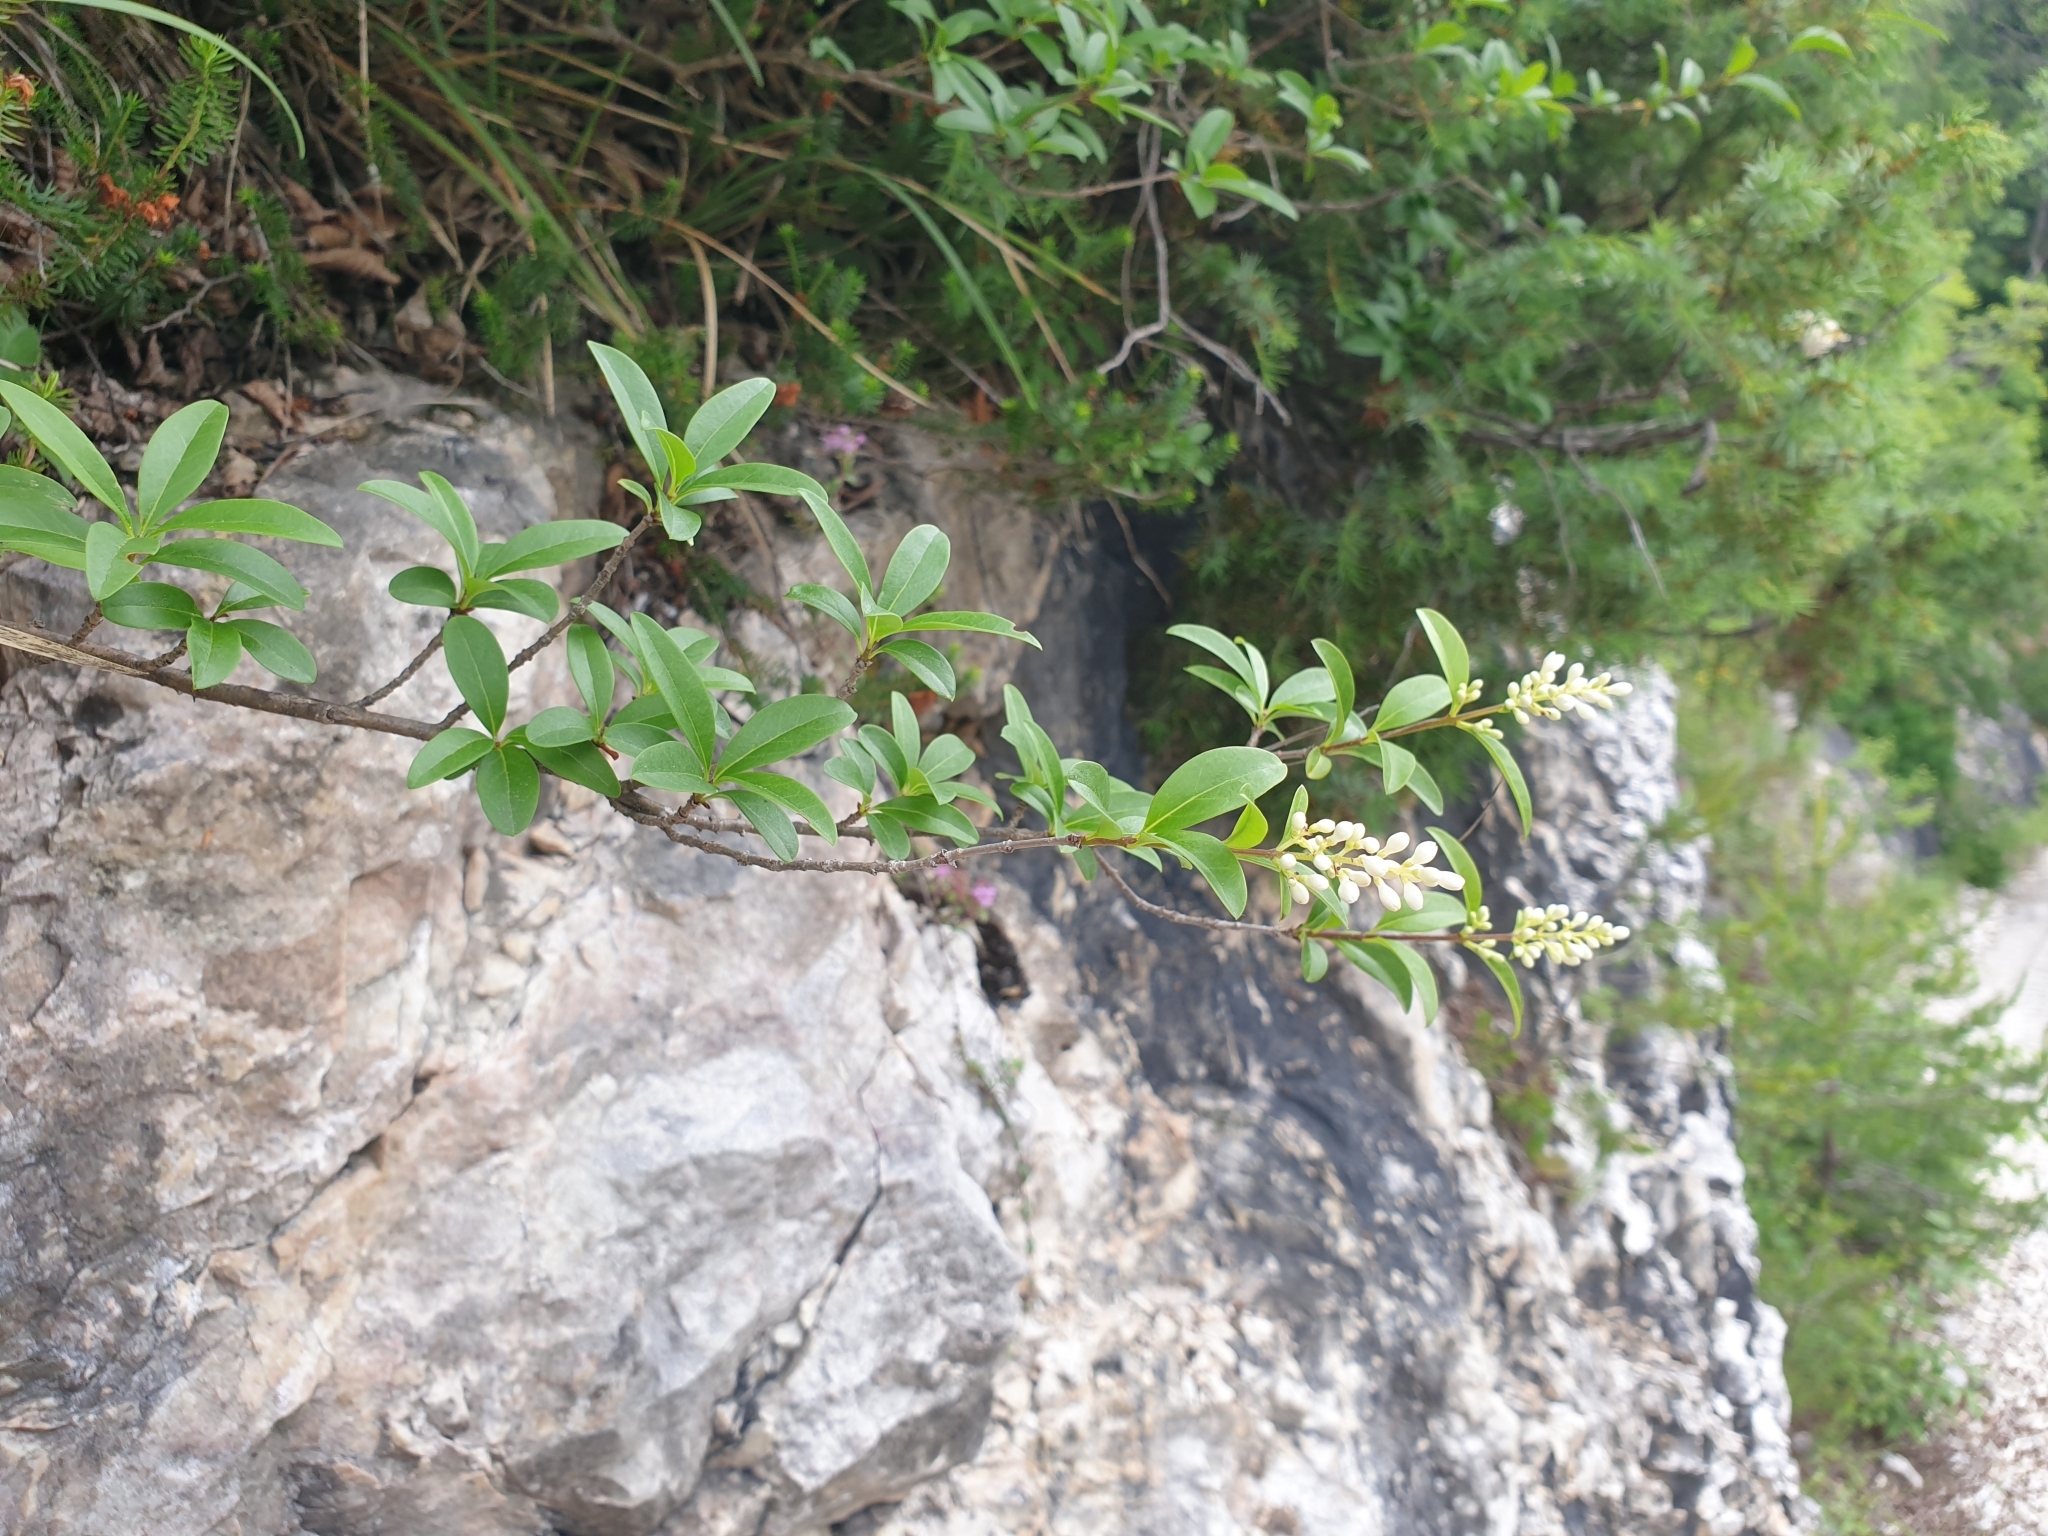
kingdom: Plantae
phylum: Tracheophyta
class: Magnoliopsida
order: Lamiales
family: Oleaceae
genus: Ligustrum
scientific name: Ligustrum vulgare
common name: Wild privet
